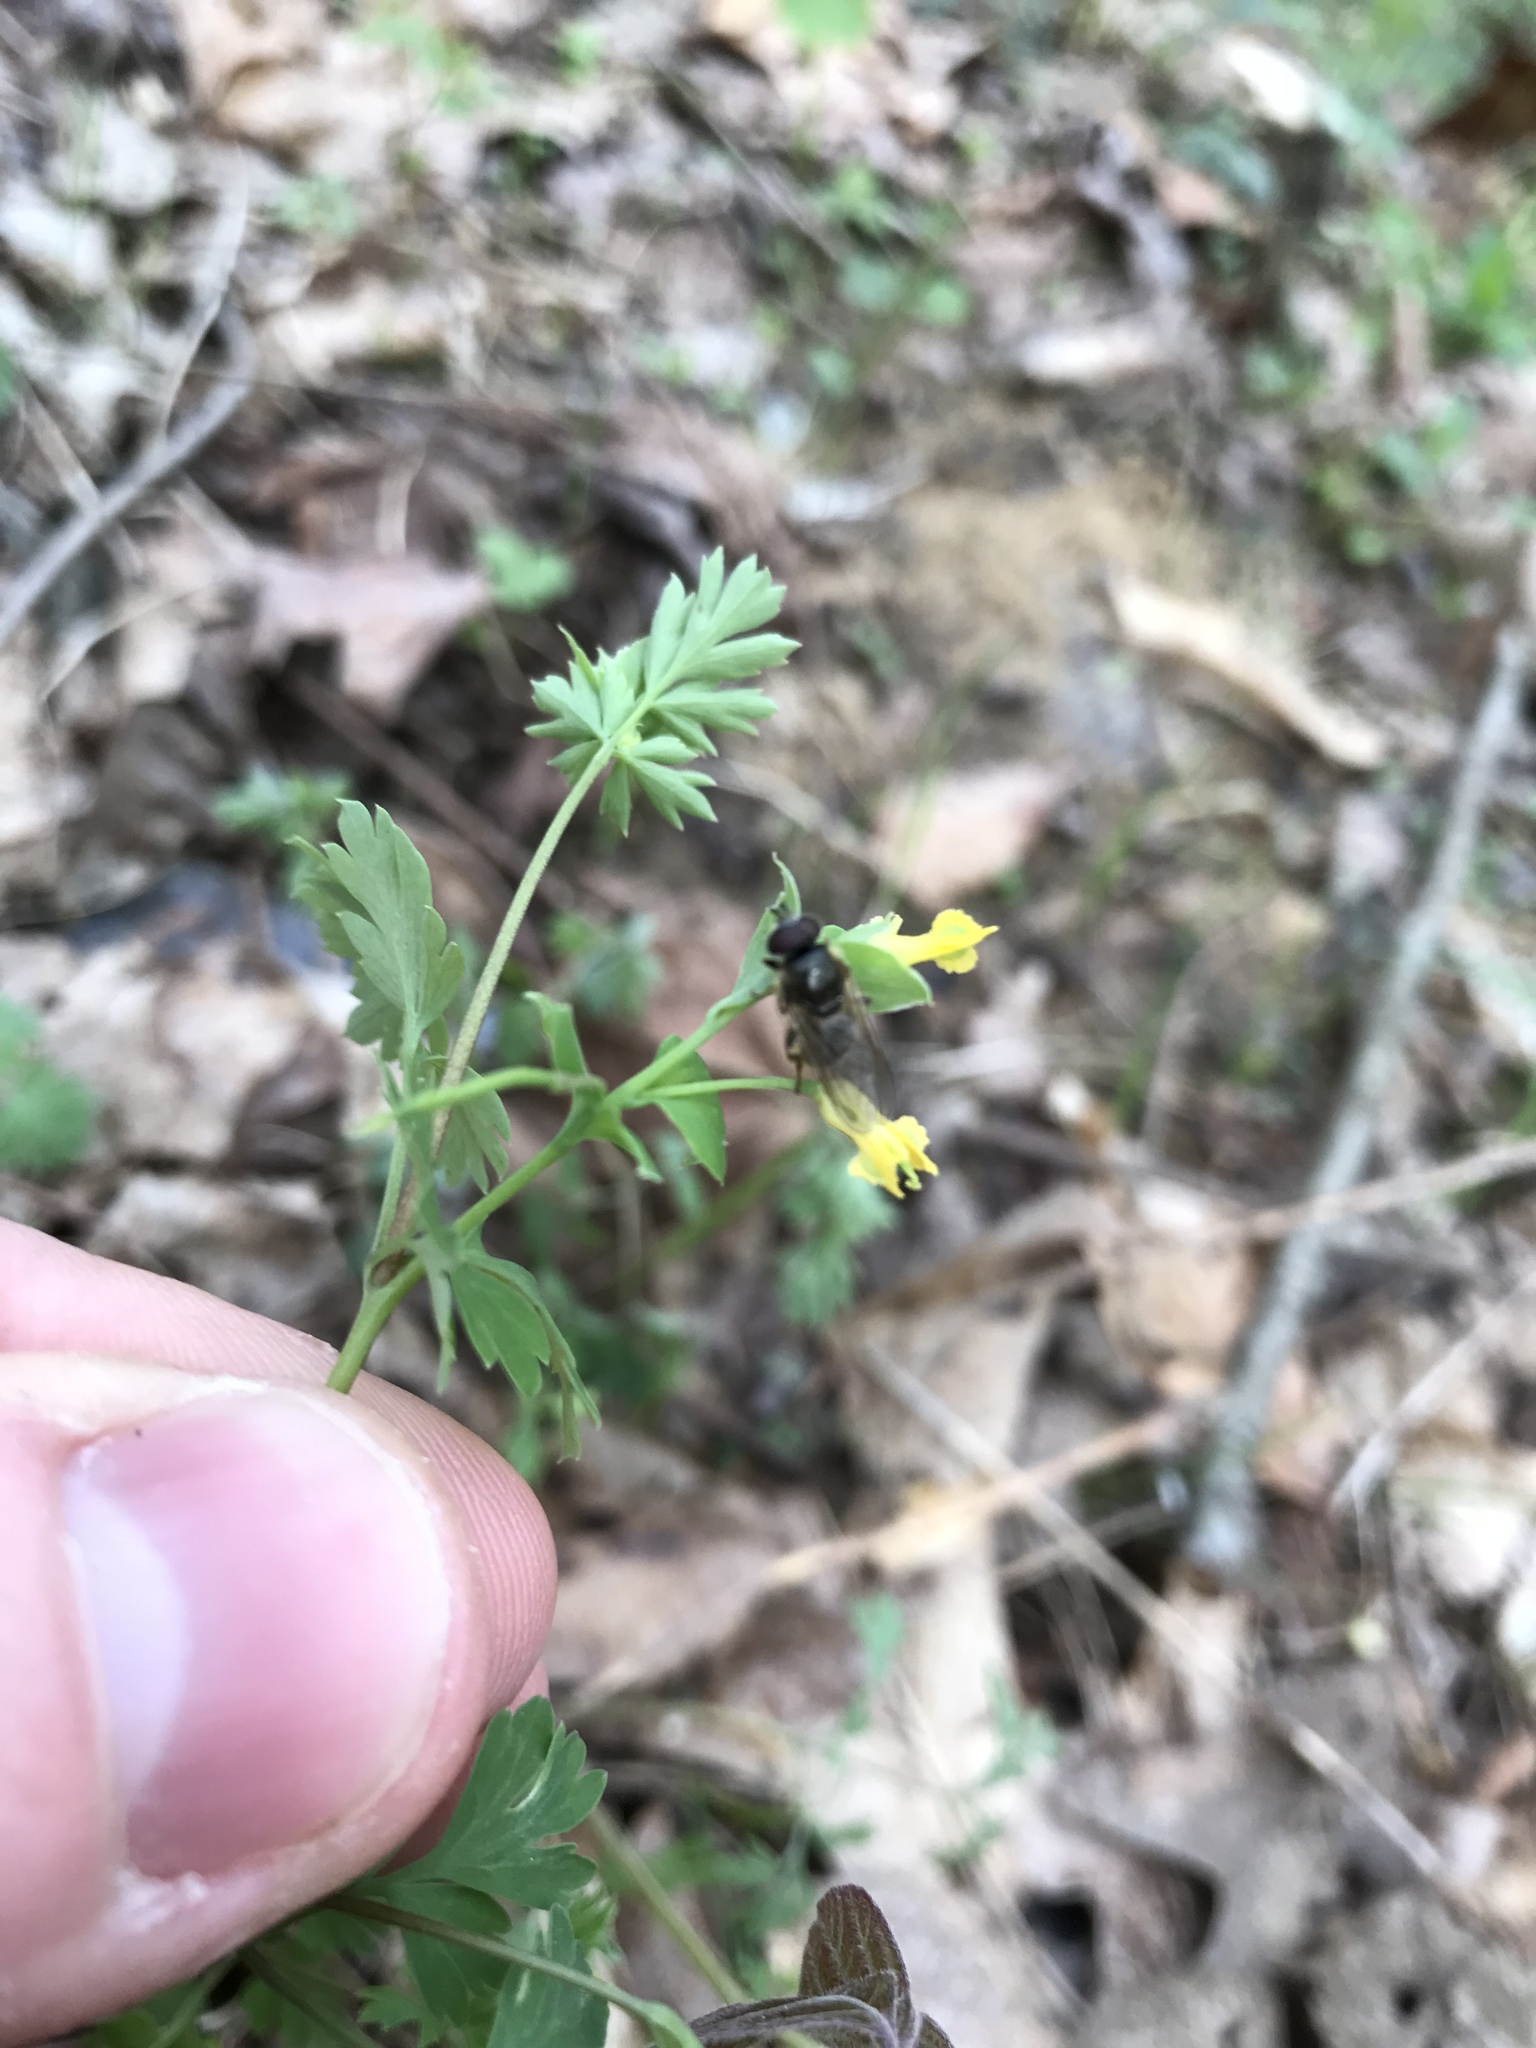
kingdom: Plantae
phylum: Tracheophyta
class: Magnoliopsida
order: Ranunculales
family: Papaveraceae
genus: Corydalis
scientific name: Corydalis flavula
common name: Yellow corydalis
